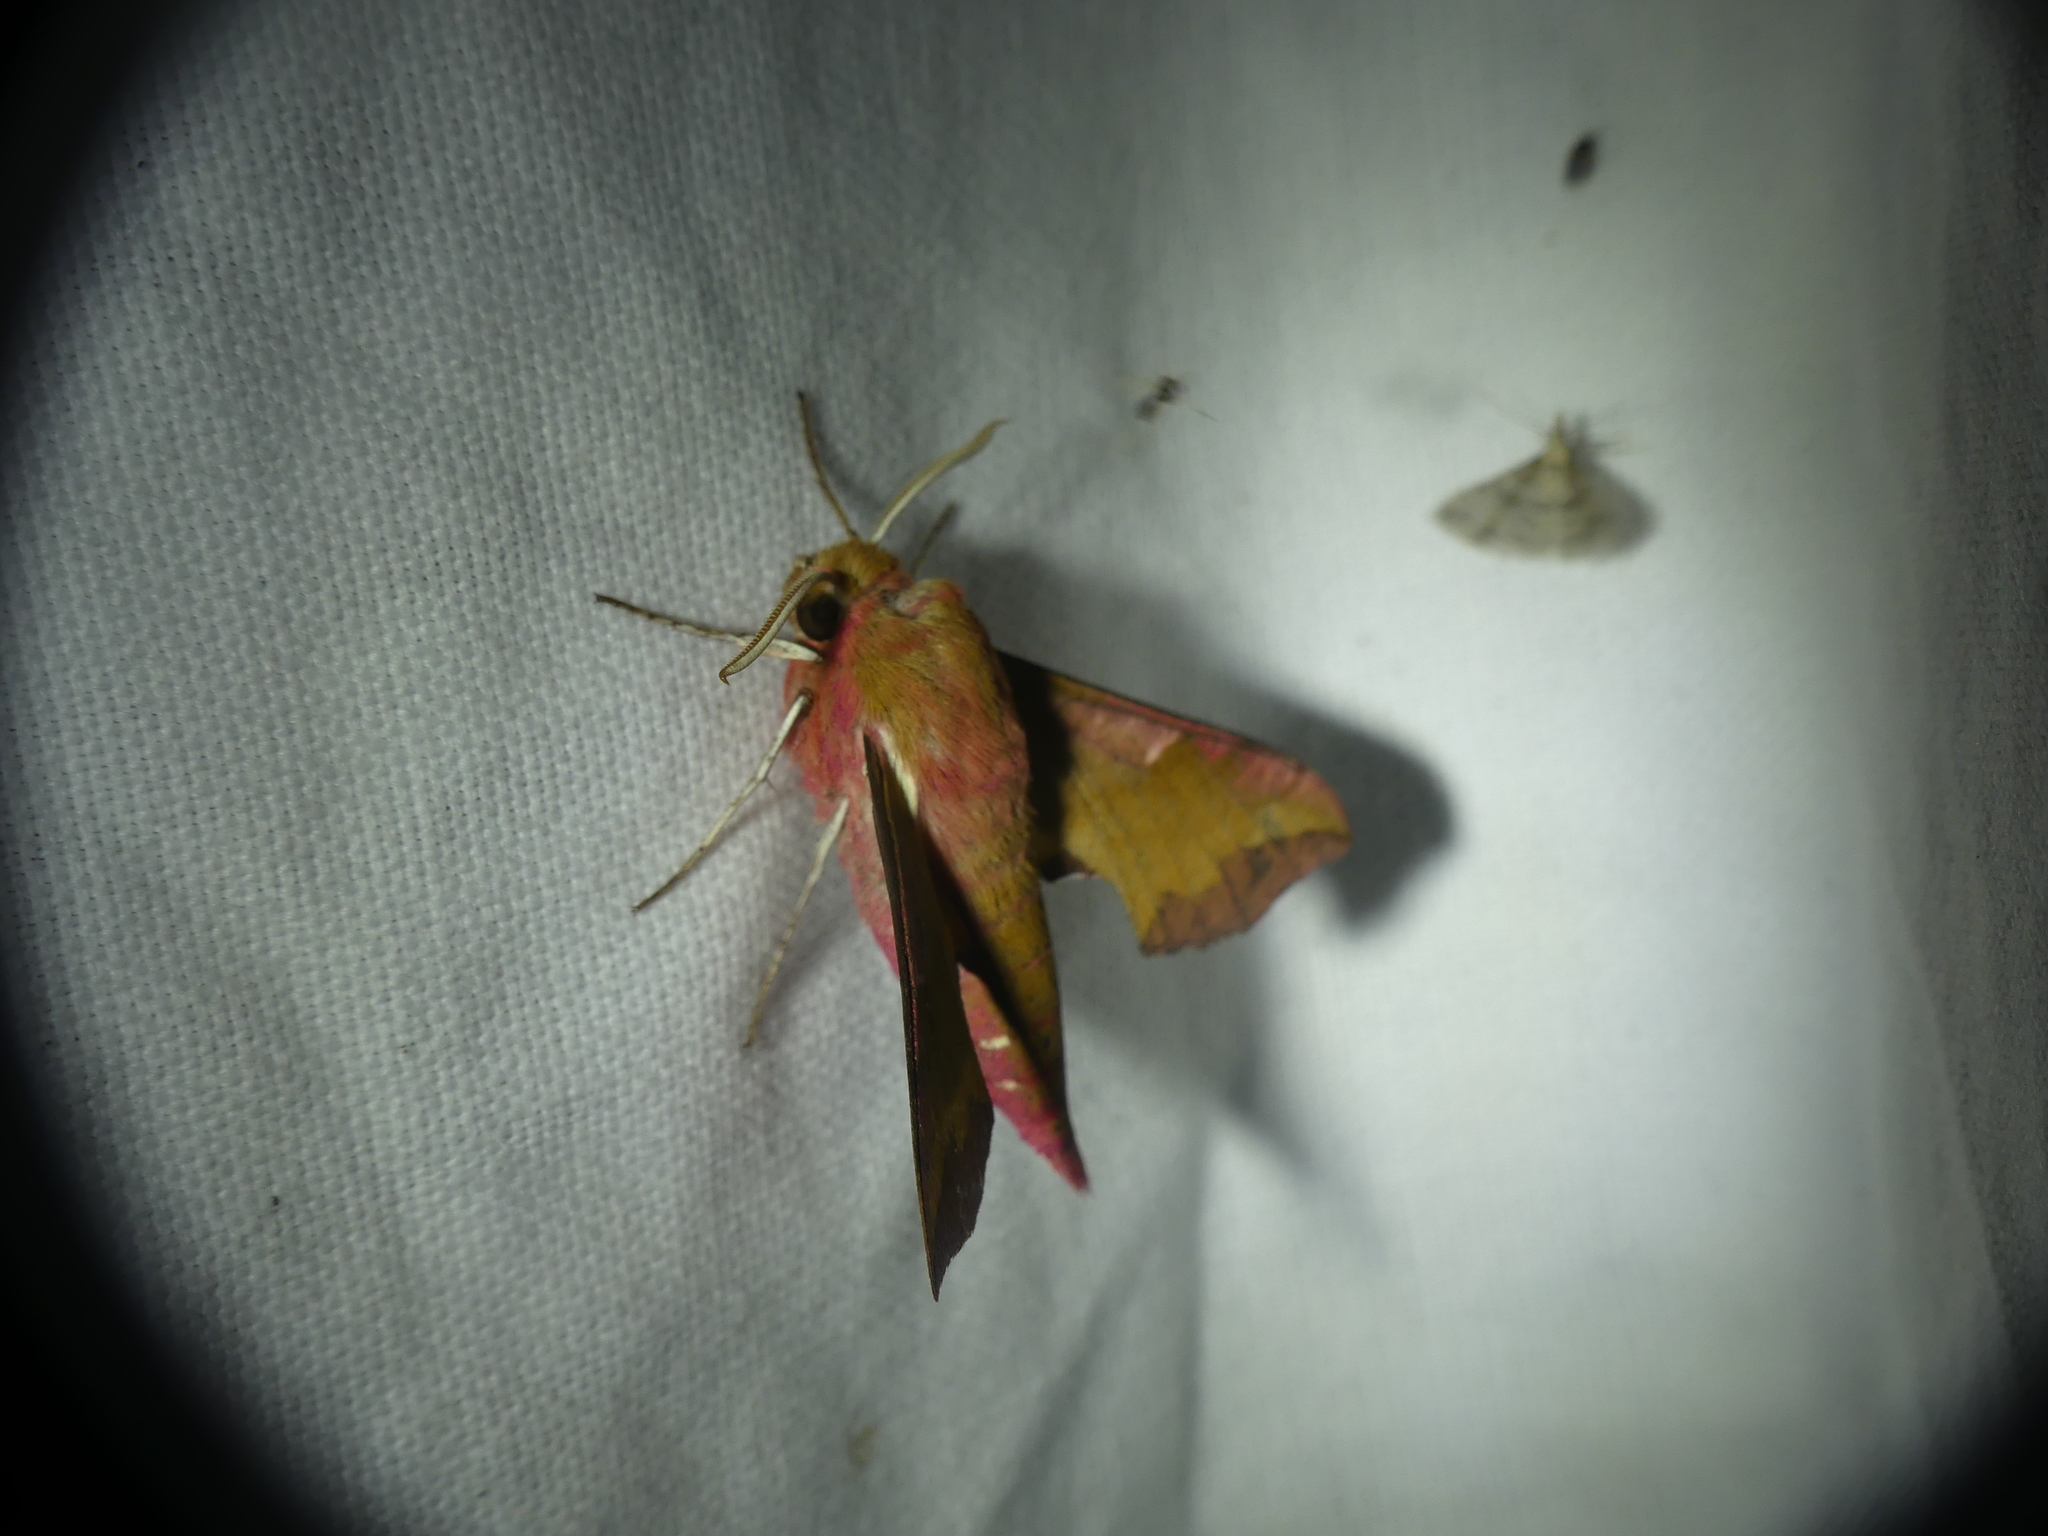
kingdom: Animalia
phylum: Arthropoda
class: Insecta
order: Lepidoptera
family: Sphingidae
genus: Deilephila
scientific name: Deilephila porcellus
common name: Small elephant hawk-moth
